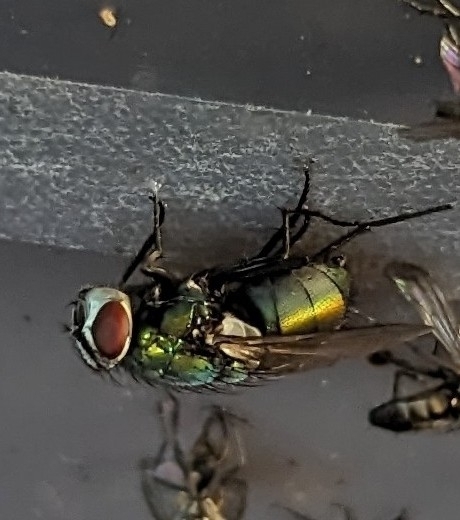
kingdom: Animalia
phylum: Arthropoda
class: Insecta
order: Diptera
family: Calliphoridae
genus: Lucilia
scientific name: Lucilia sericata
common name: Blow fly
